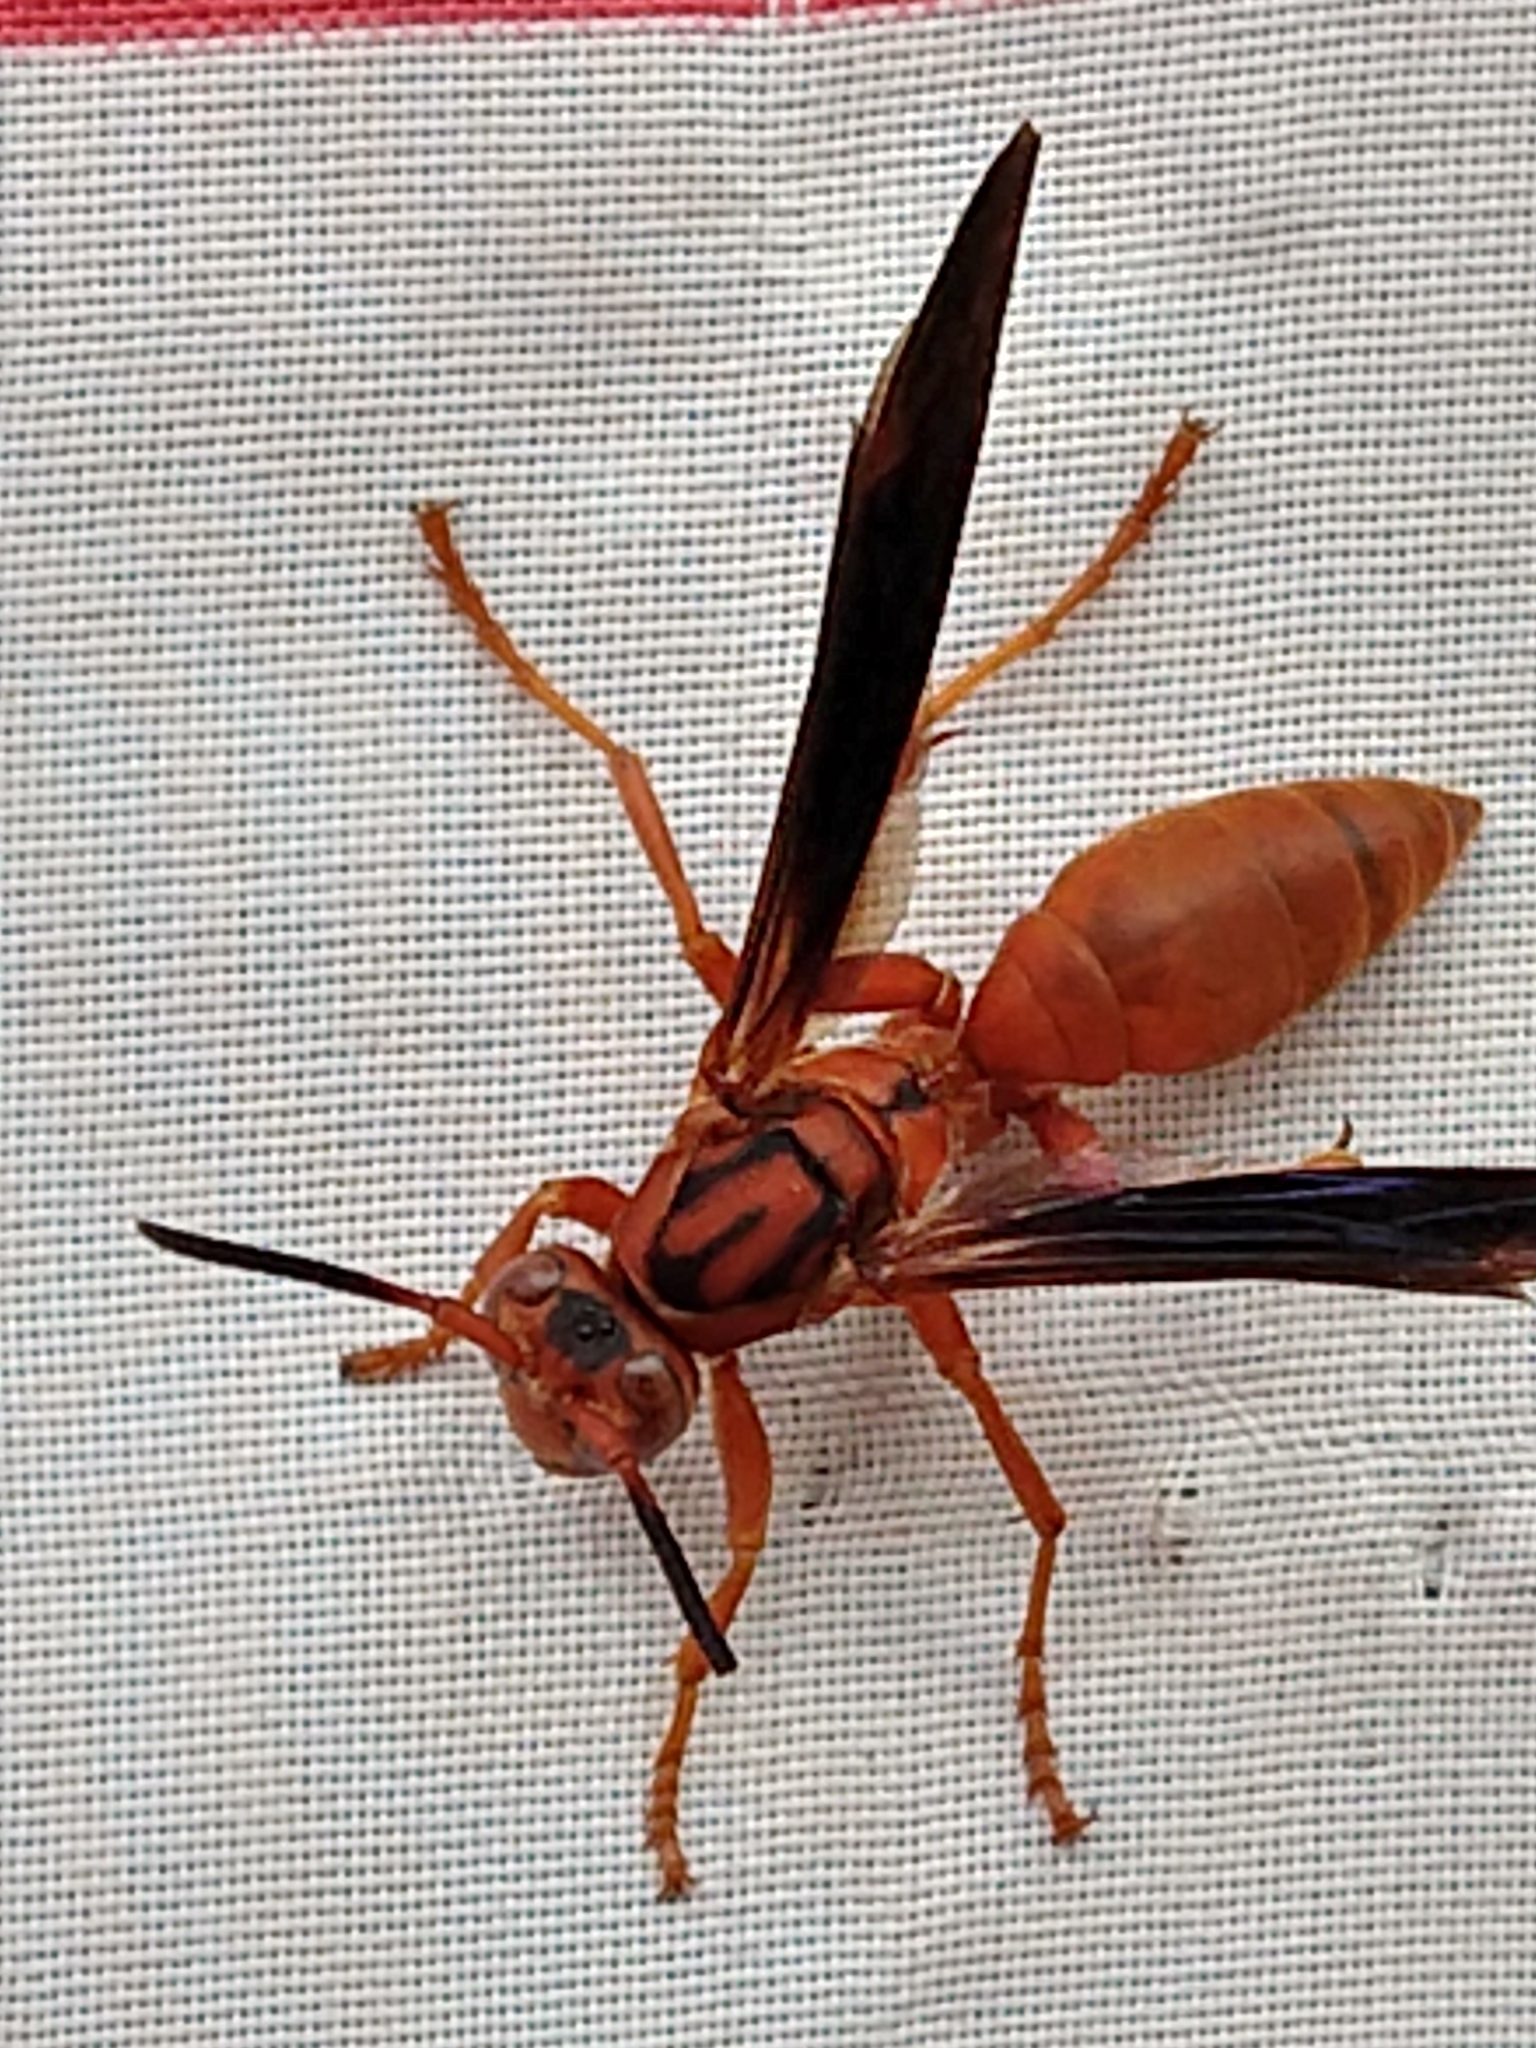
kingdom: Animalia
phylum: Arthropoda
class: Insecta
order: Hymenoptera
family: Eumenidae
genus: Polistes
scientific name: Polistes carolina
